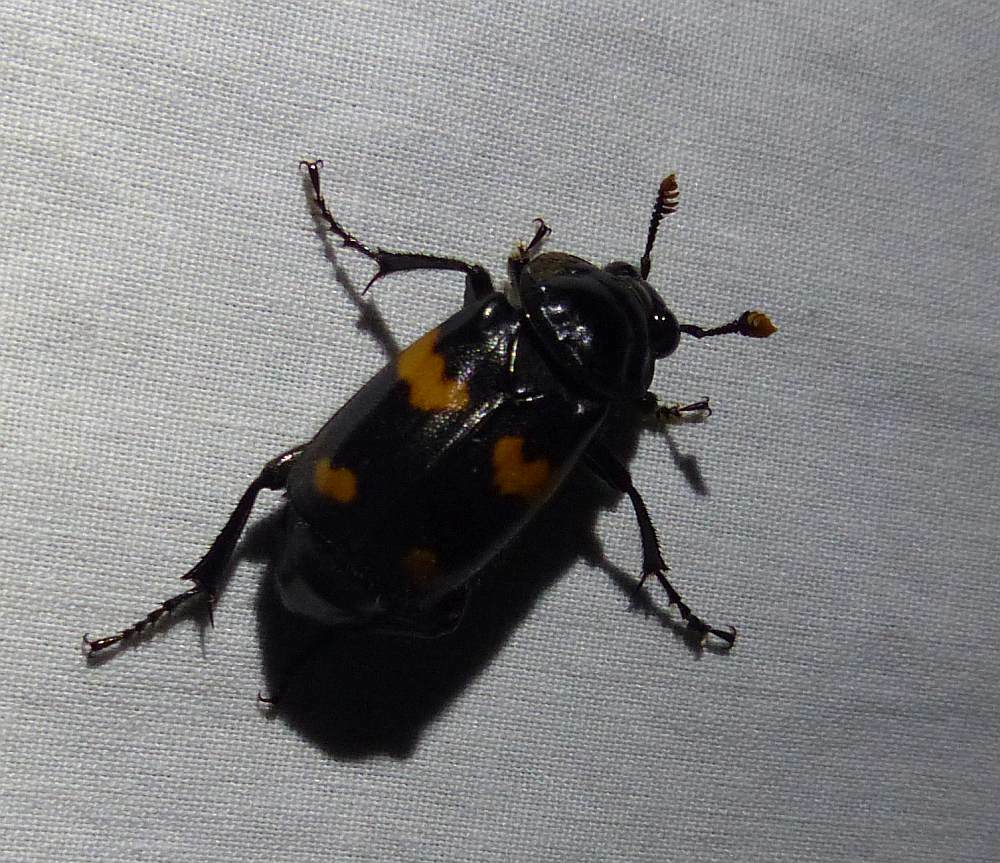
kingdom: Animalia
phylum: Arthropoda
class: Insecta
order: Coleoptera
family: Staphylinidae
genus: Nicrophorus
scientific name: Nicrophorus orbicollis
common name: Roundneck sexton beetle
